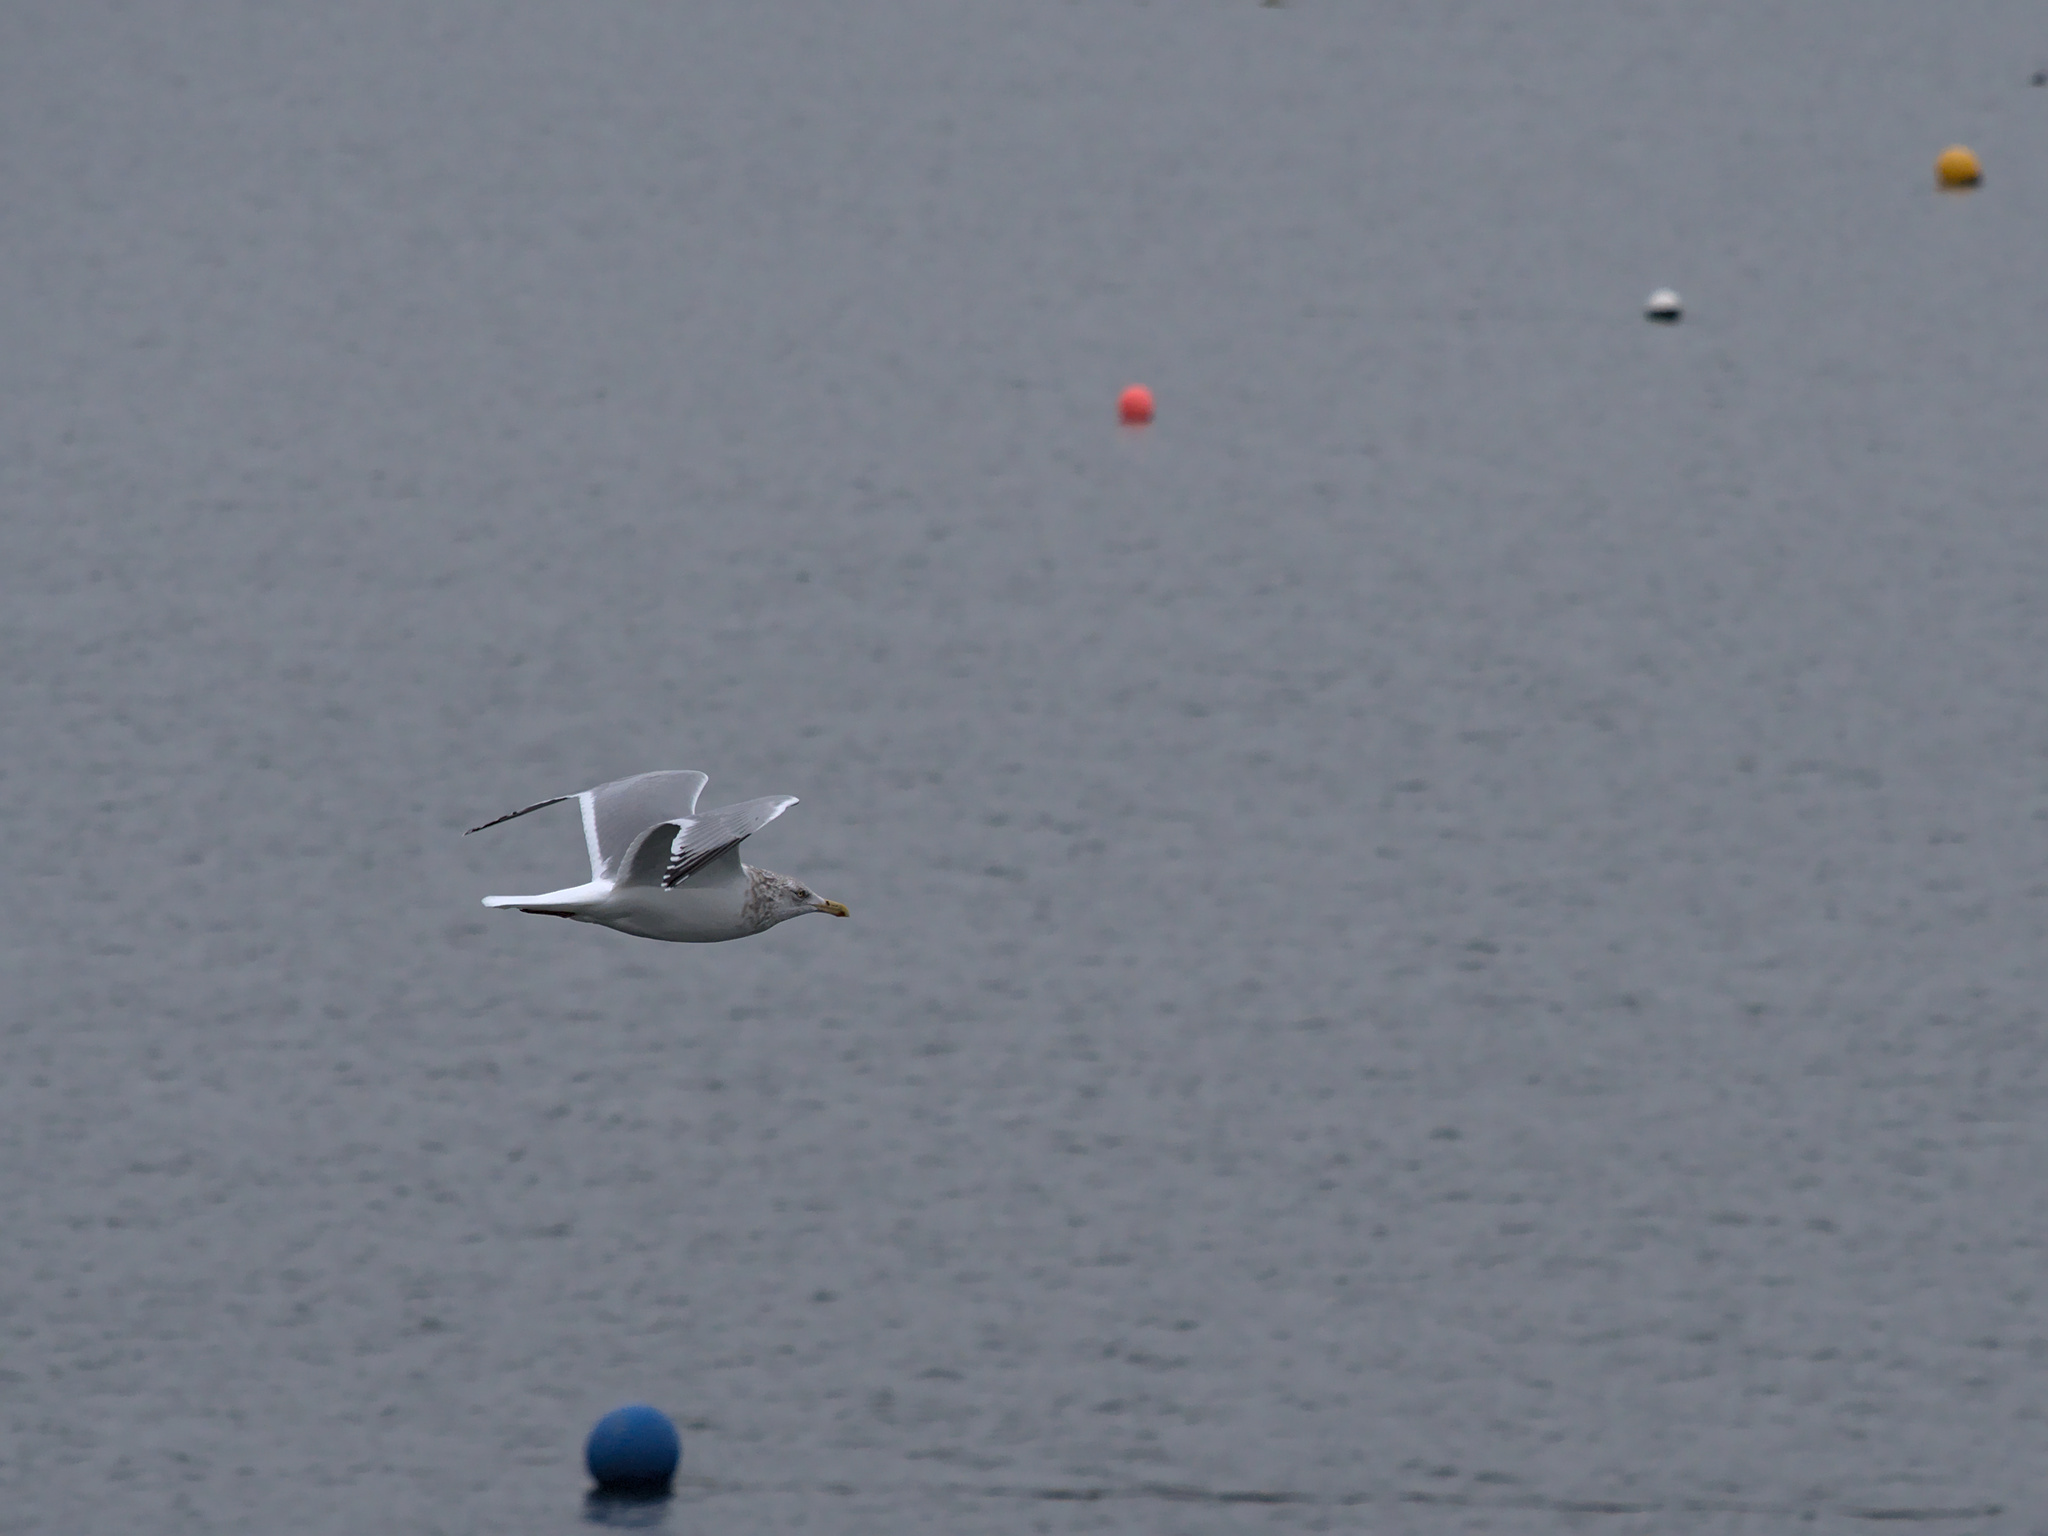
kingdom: Animalia
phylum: Chordata
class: Aves
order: Charadriiformes
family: Laridae
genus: Larus
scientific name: Larus argentatus
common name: Herring gull
